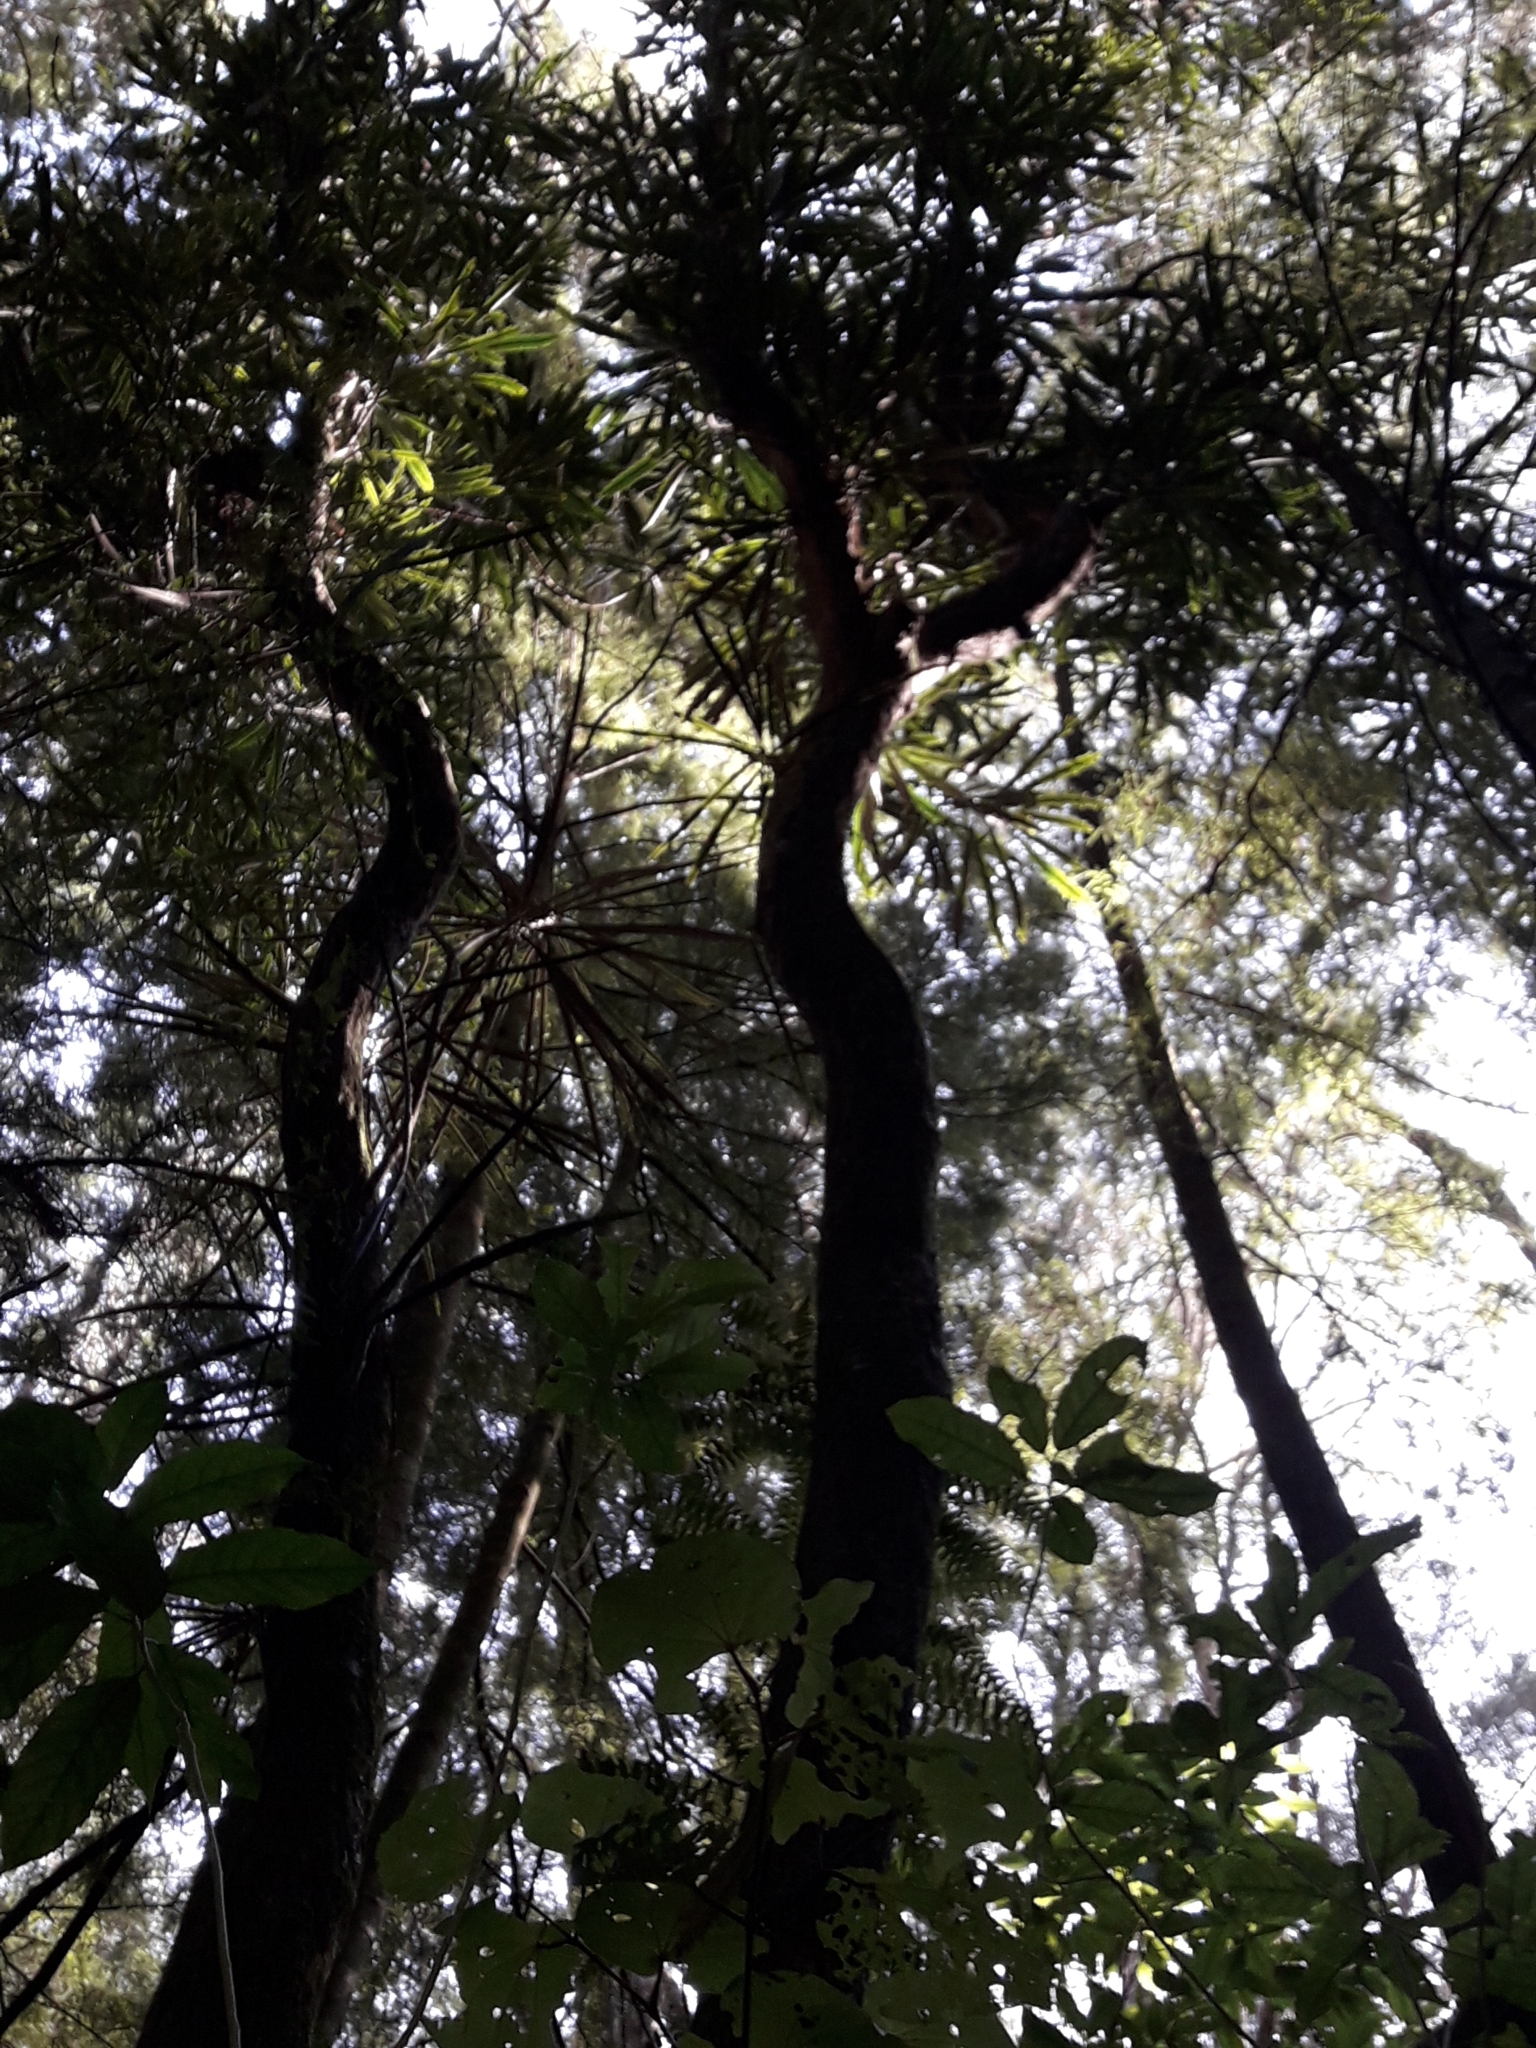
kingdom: Plantae
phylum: Tracheophyta
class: Magnoliopsida
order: Apiales
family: Araliaceae
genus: Pseudopanax
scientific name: Pseudopanax crassifolius
